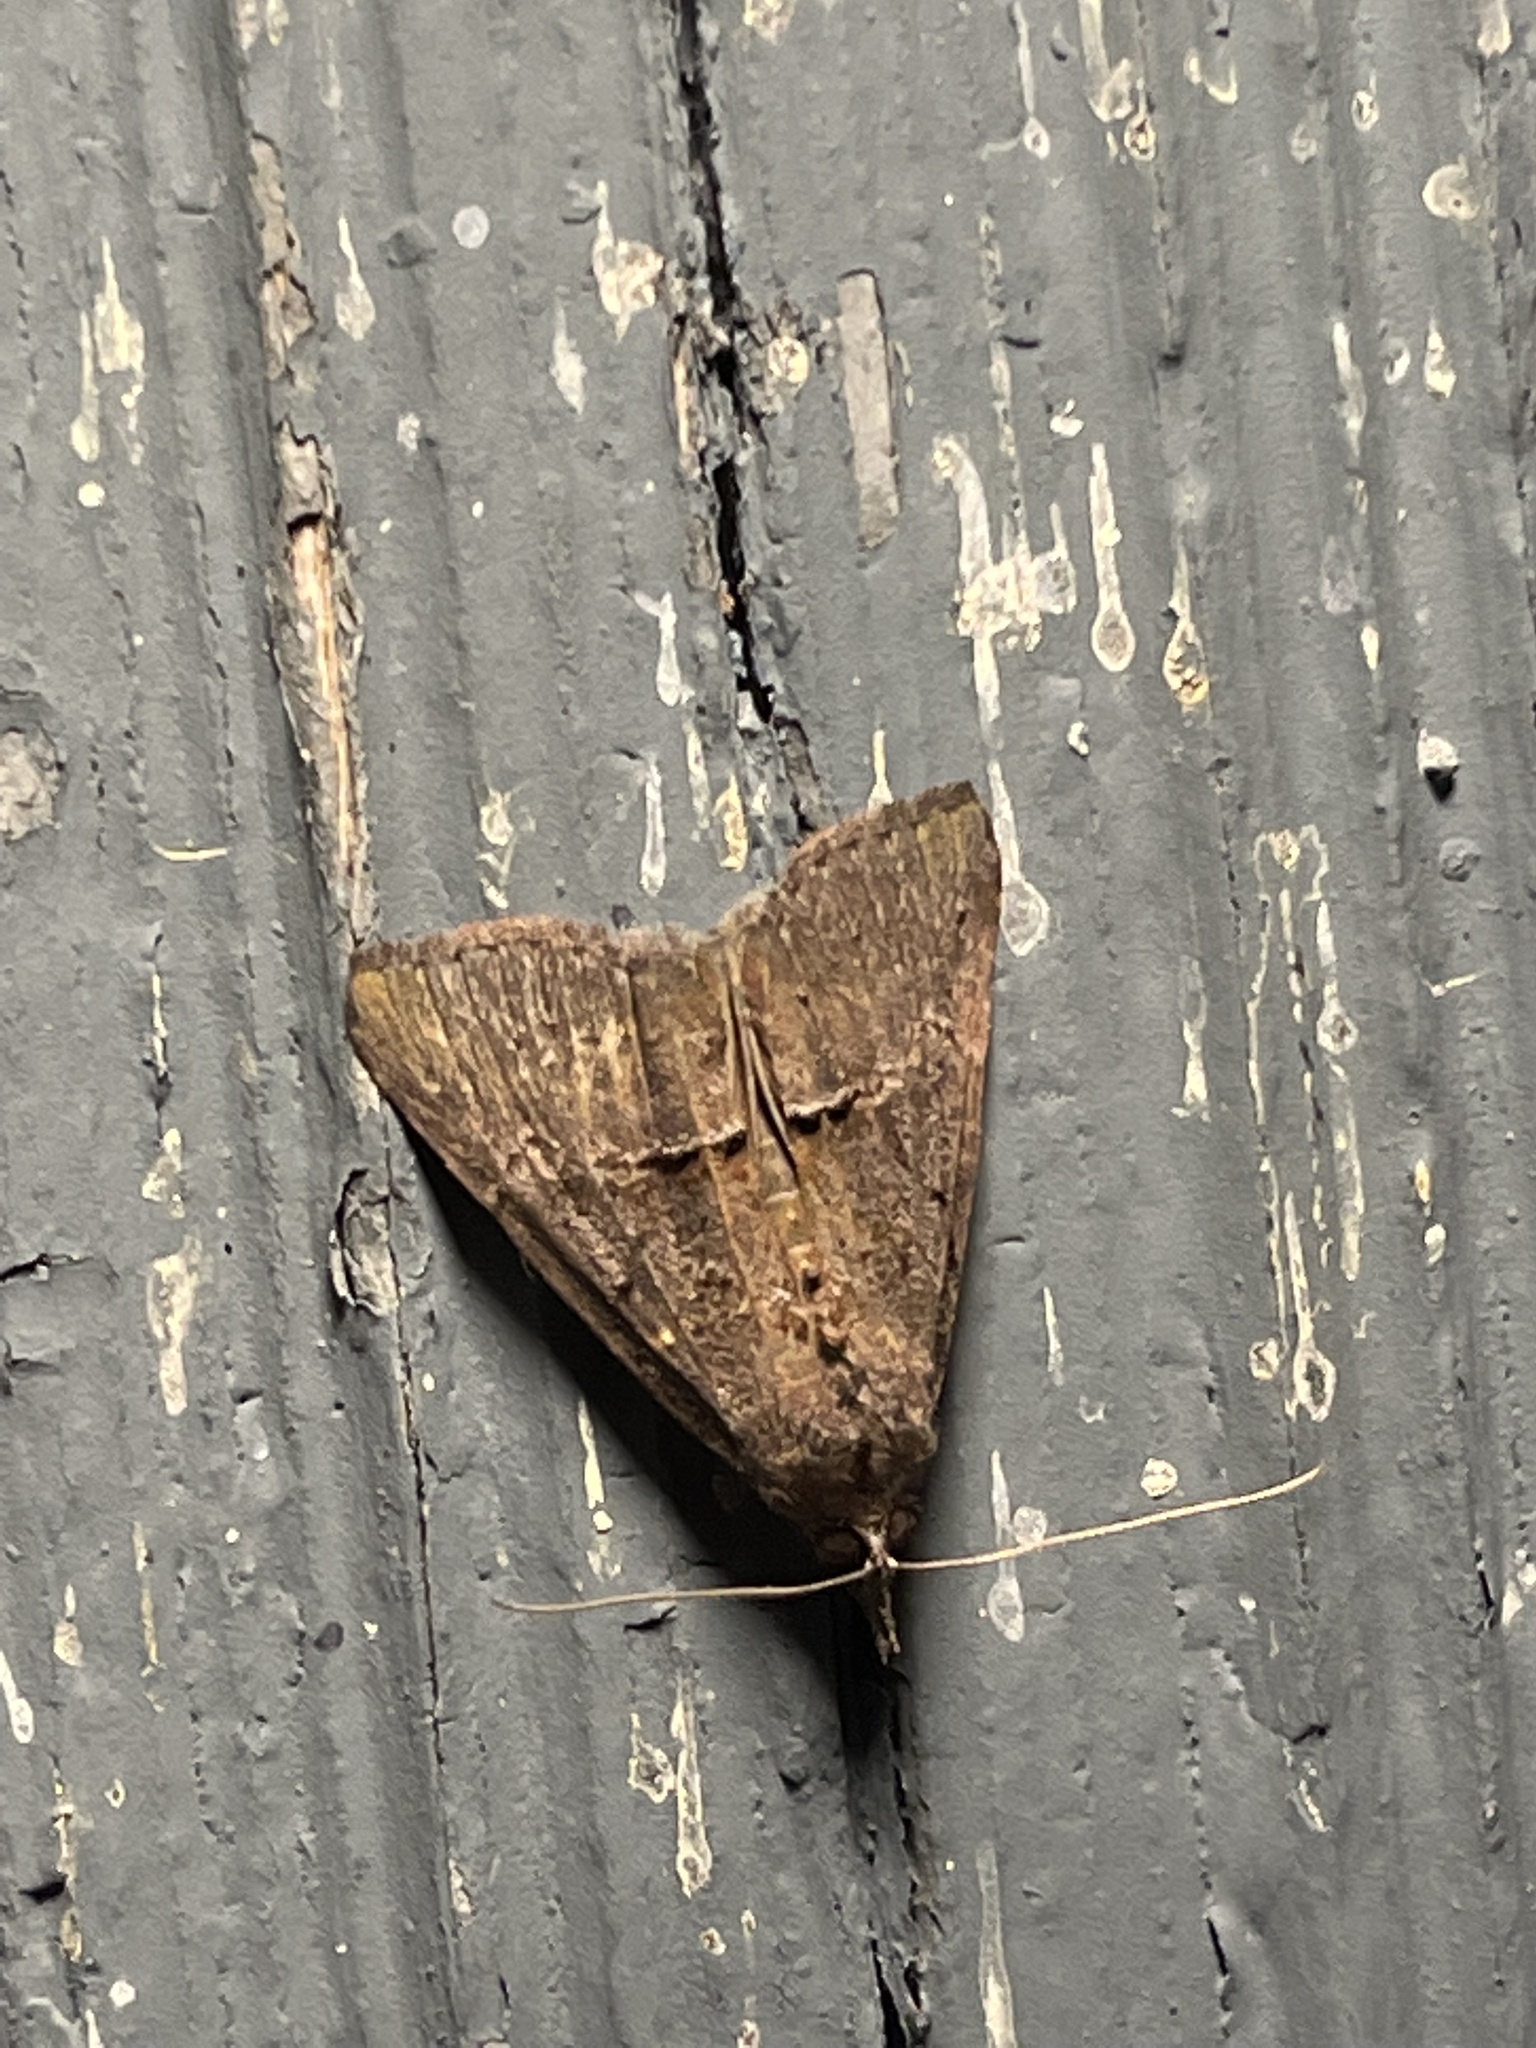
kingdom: Animalia
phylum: Arthropoda
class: Insecta
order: Lepidoptera
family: Erebidae
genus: Hypena
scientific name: Hypena scabra
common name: Green cloverworm
